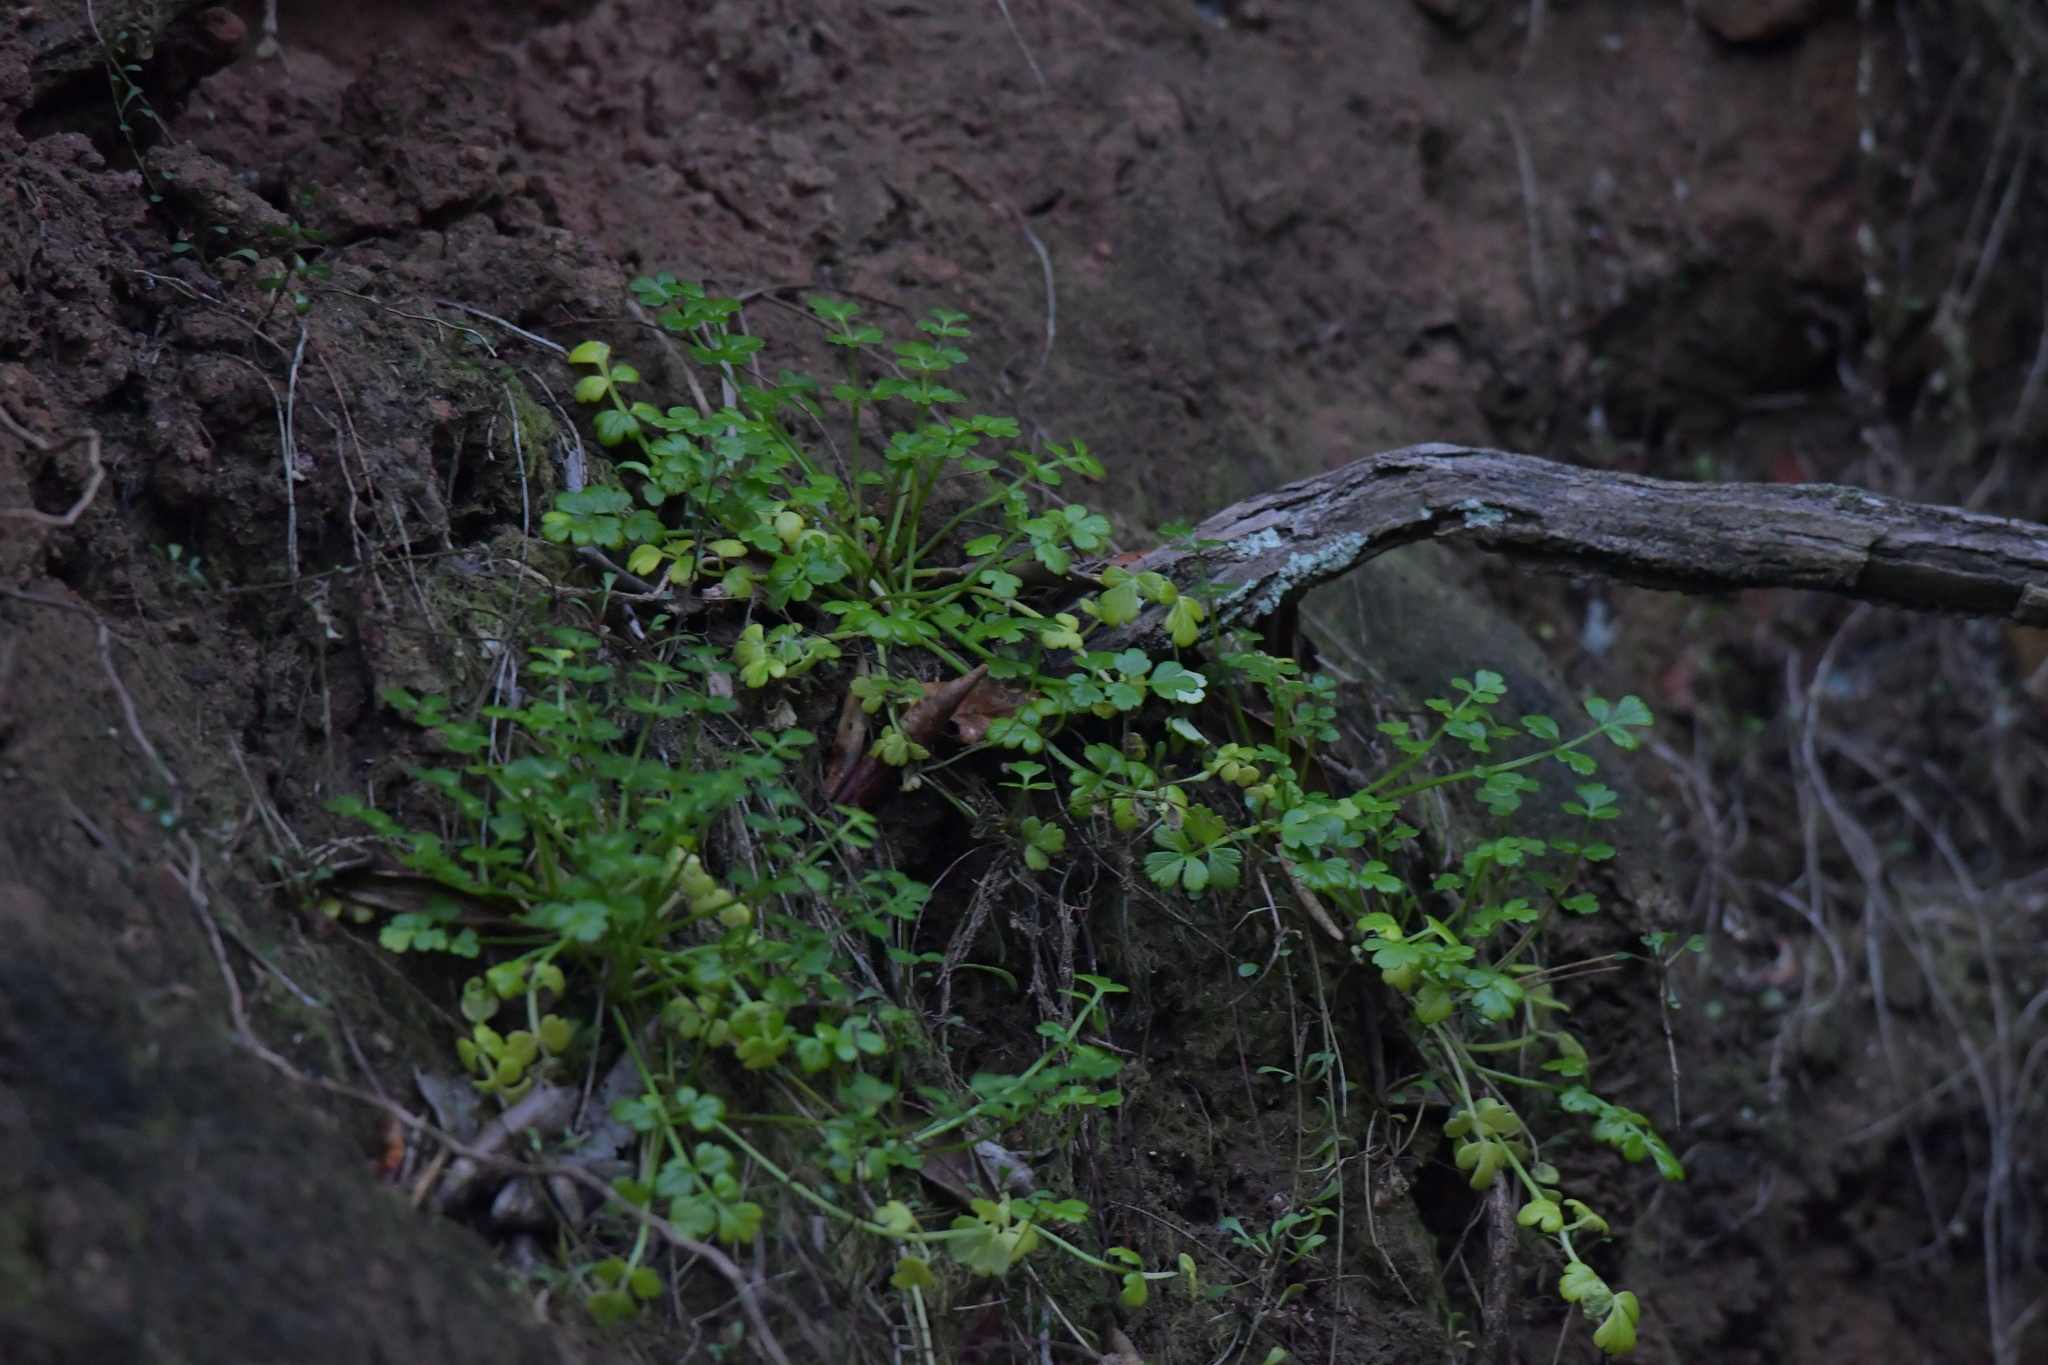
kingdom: Plantae
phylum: Tracheophyta
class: Magnoliopsida
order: Apiales
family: Apiaceae
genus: Apium
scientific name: Apium prostratum
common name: Prostrate marshwort
